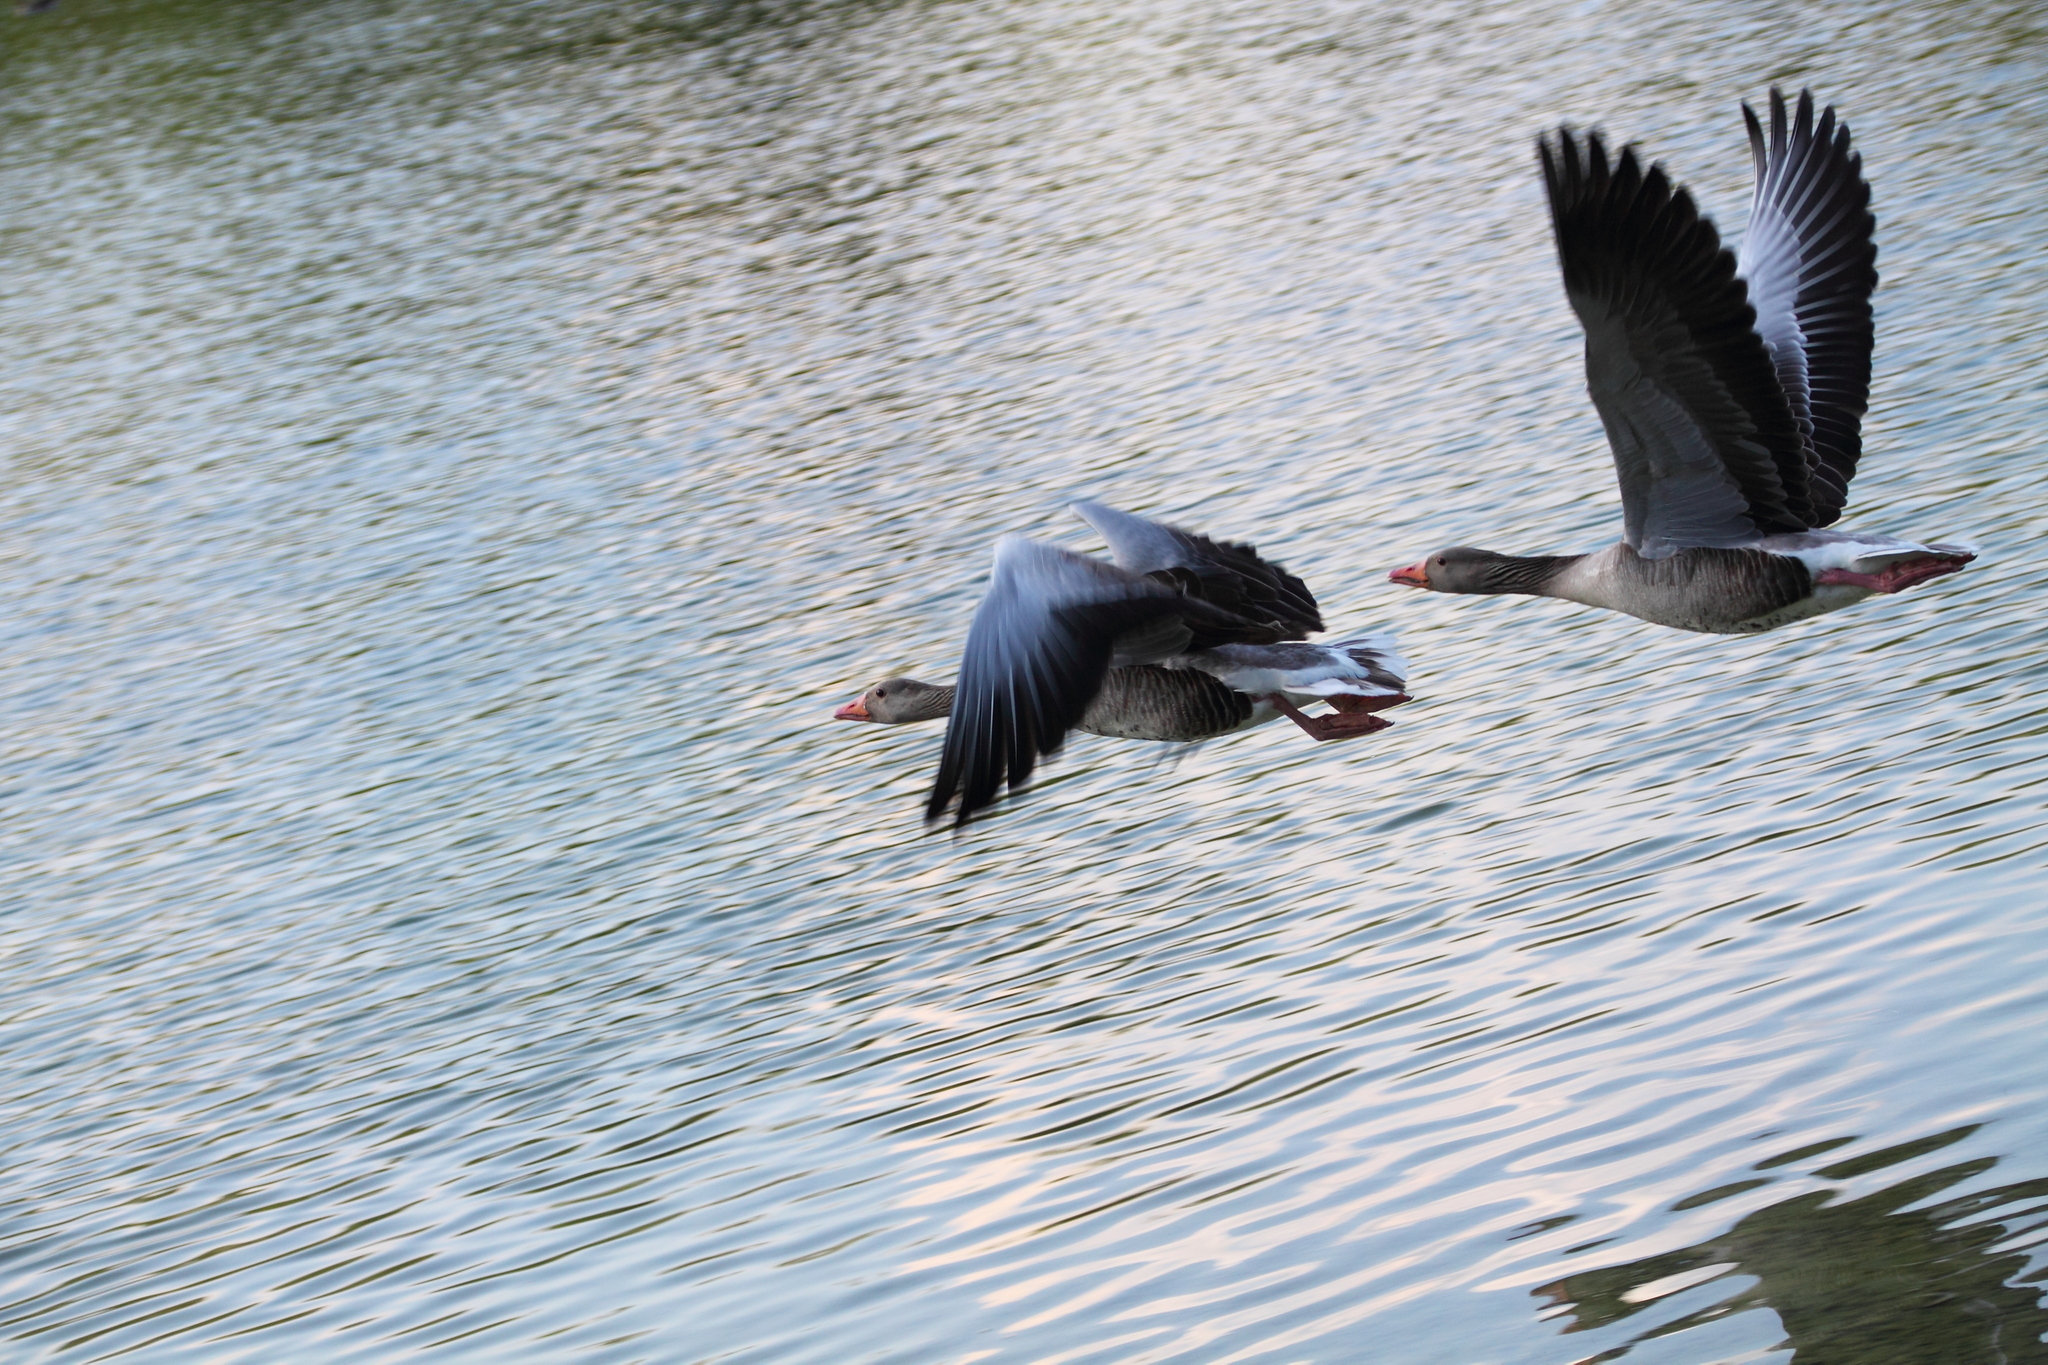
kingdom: Animalia
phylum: Chordata
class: Aves
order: Anseriformes
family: Anatidae
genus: Anser
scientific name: Anser anser
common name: Greylag goose
